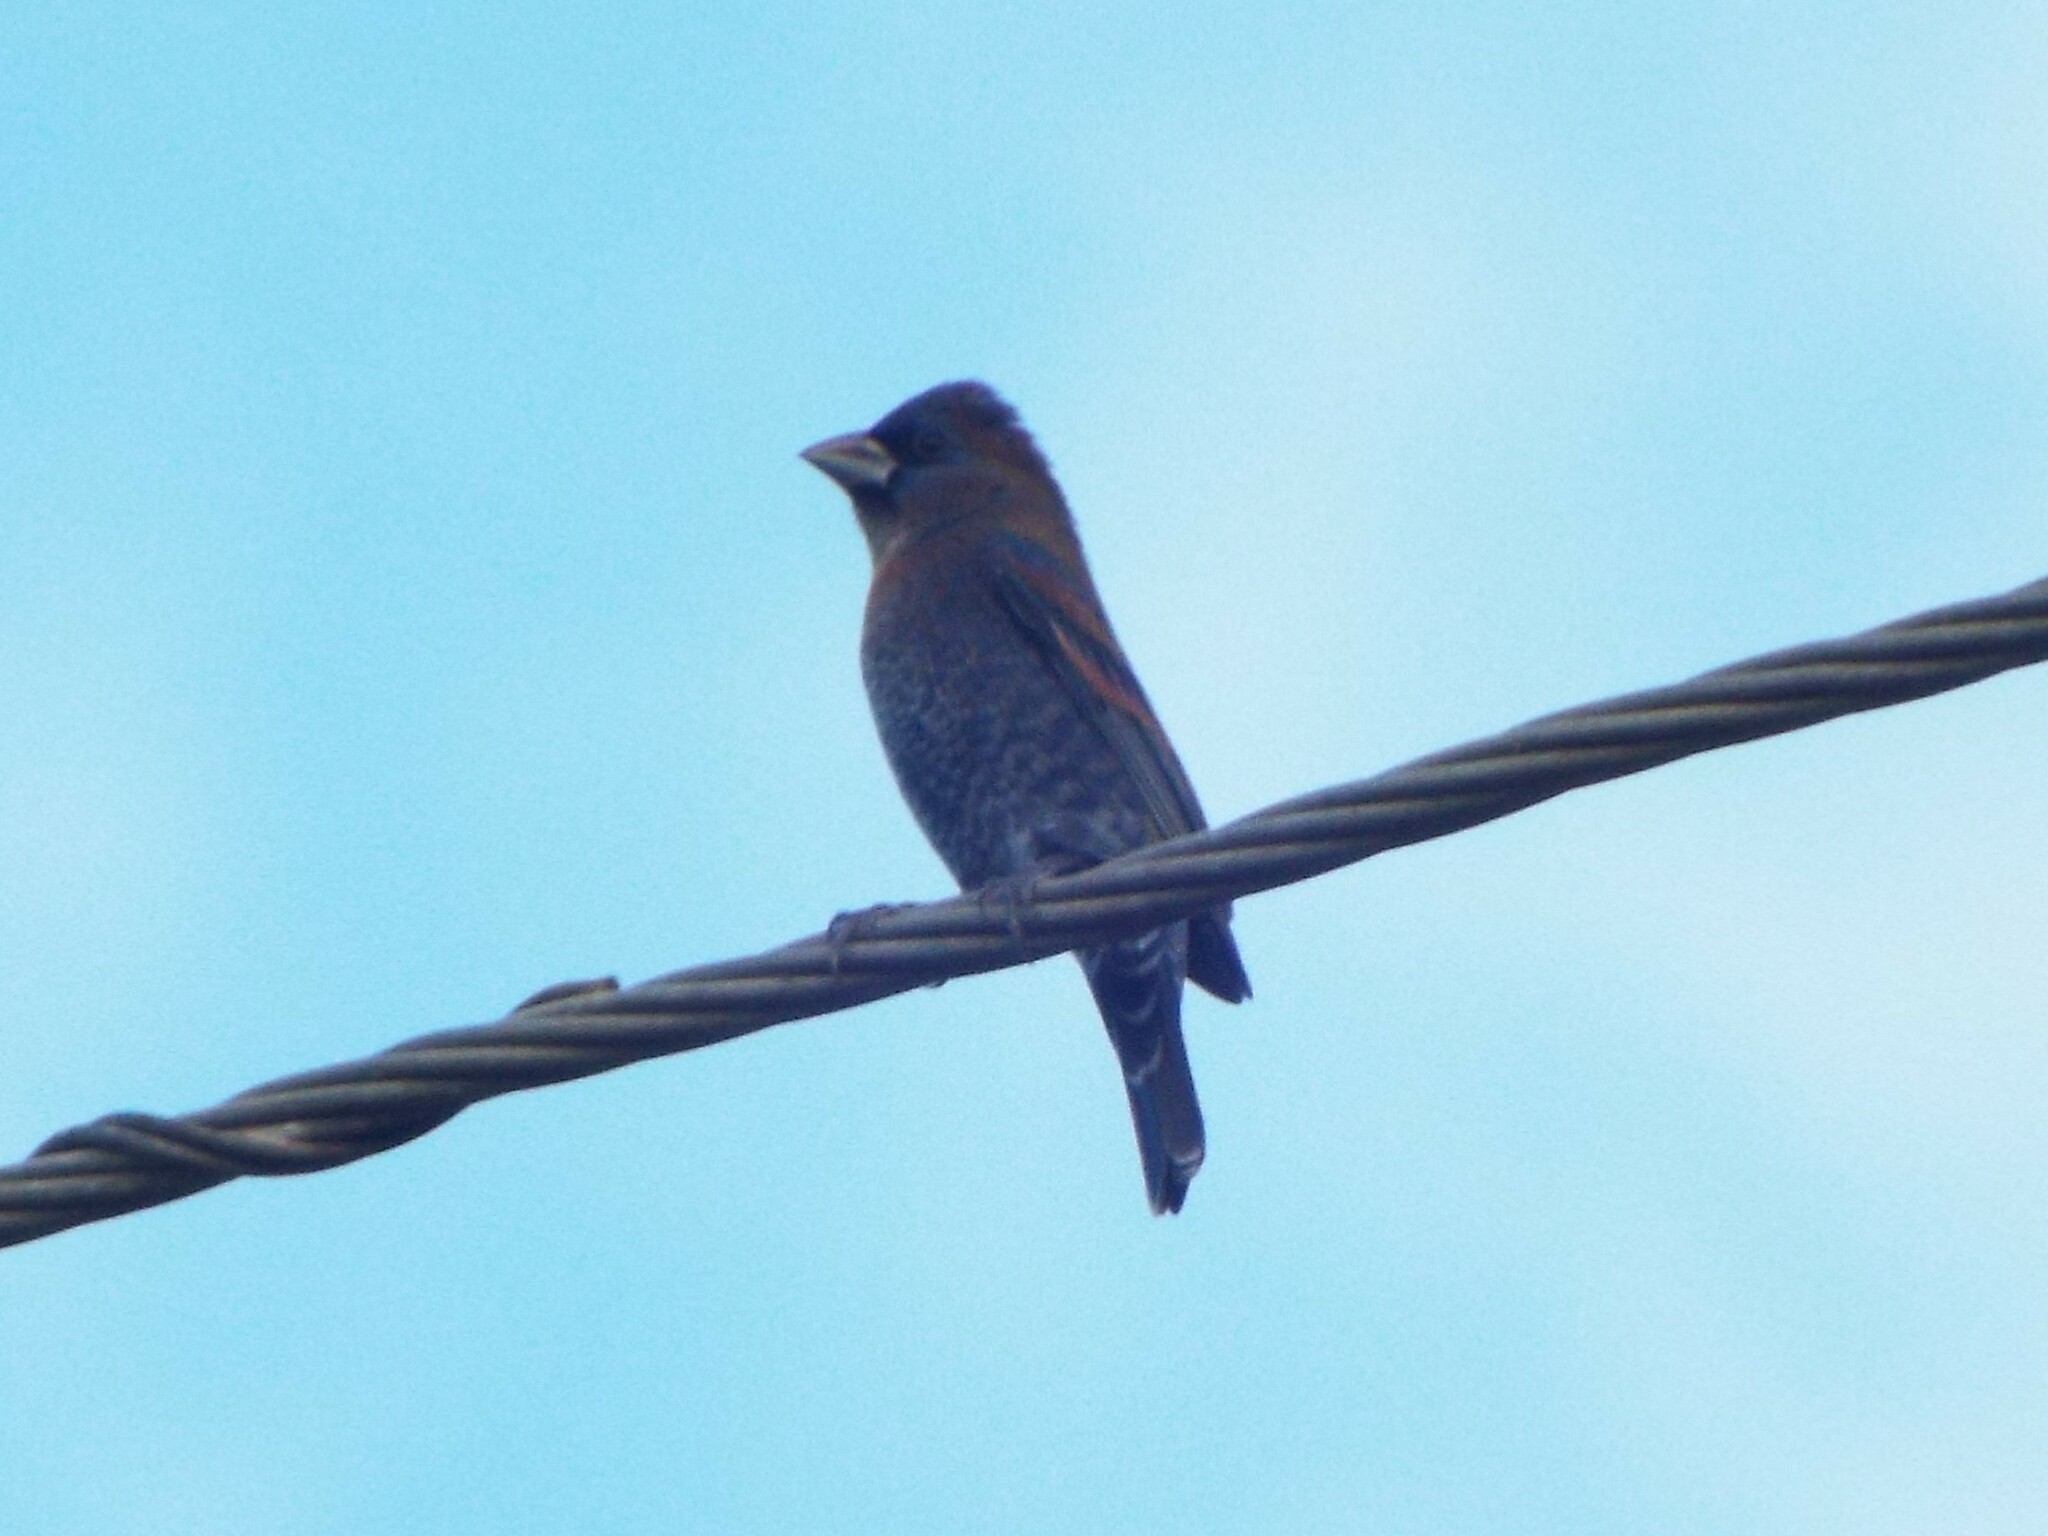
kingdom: Animalia
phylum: Chordata
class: Aves
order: Passeriformes
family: Cardinalidae
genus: Passerina
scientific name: Passerina caerulea
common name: Blue grosbeak
